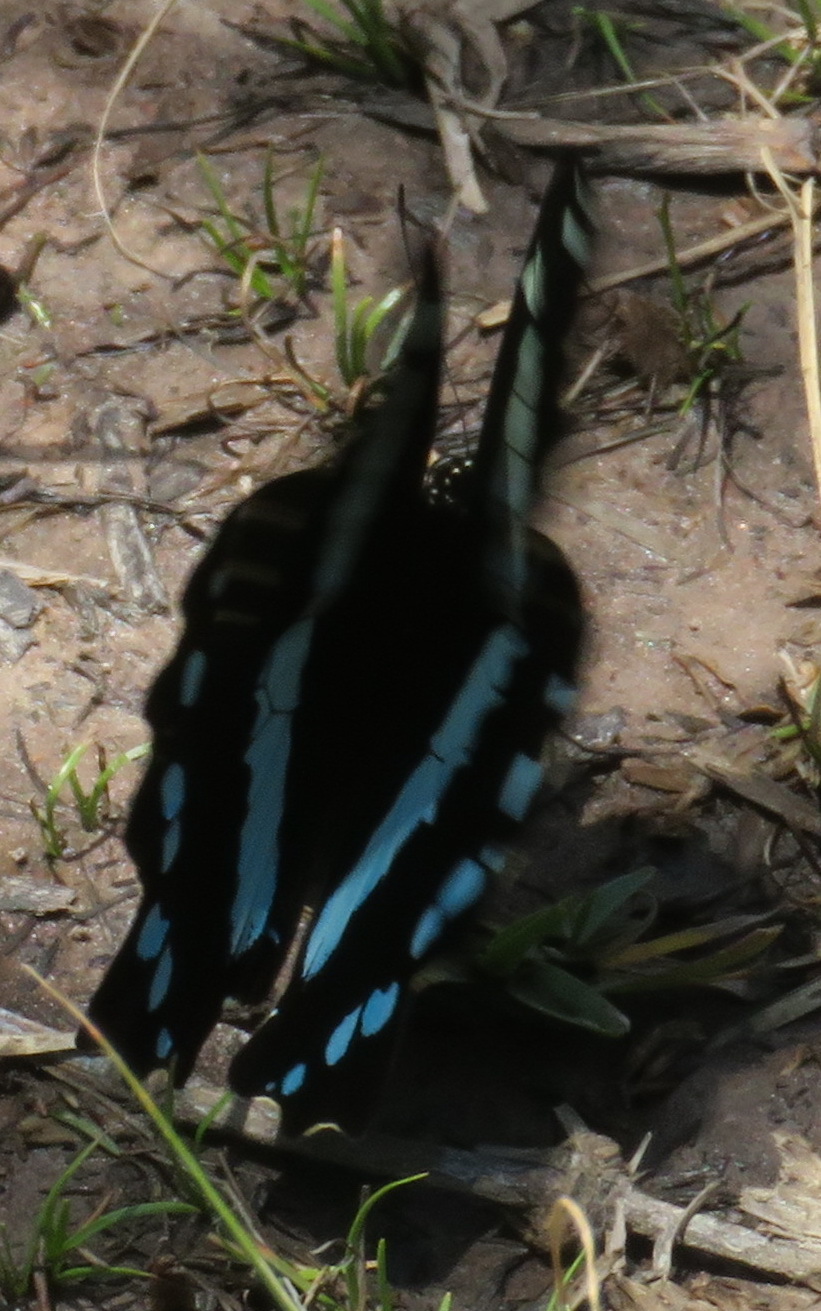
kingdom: Animalia
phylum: Arthropoda
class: Insecta
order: Lepidoptera
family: Papilionidae
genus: Papilio
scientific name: Papilio nireus
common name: Greenbanded swallowtail
